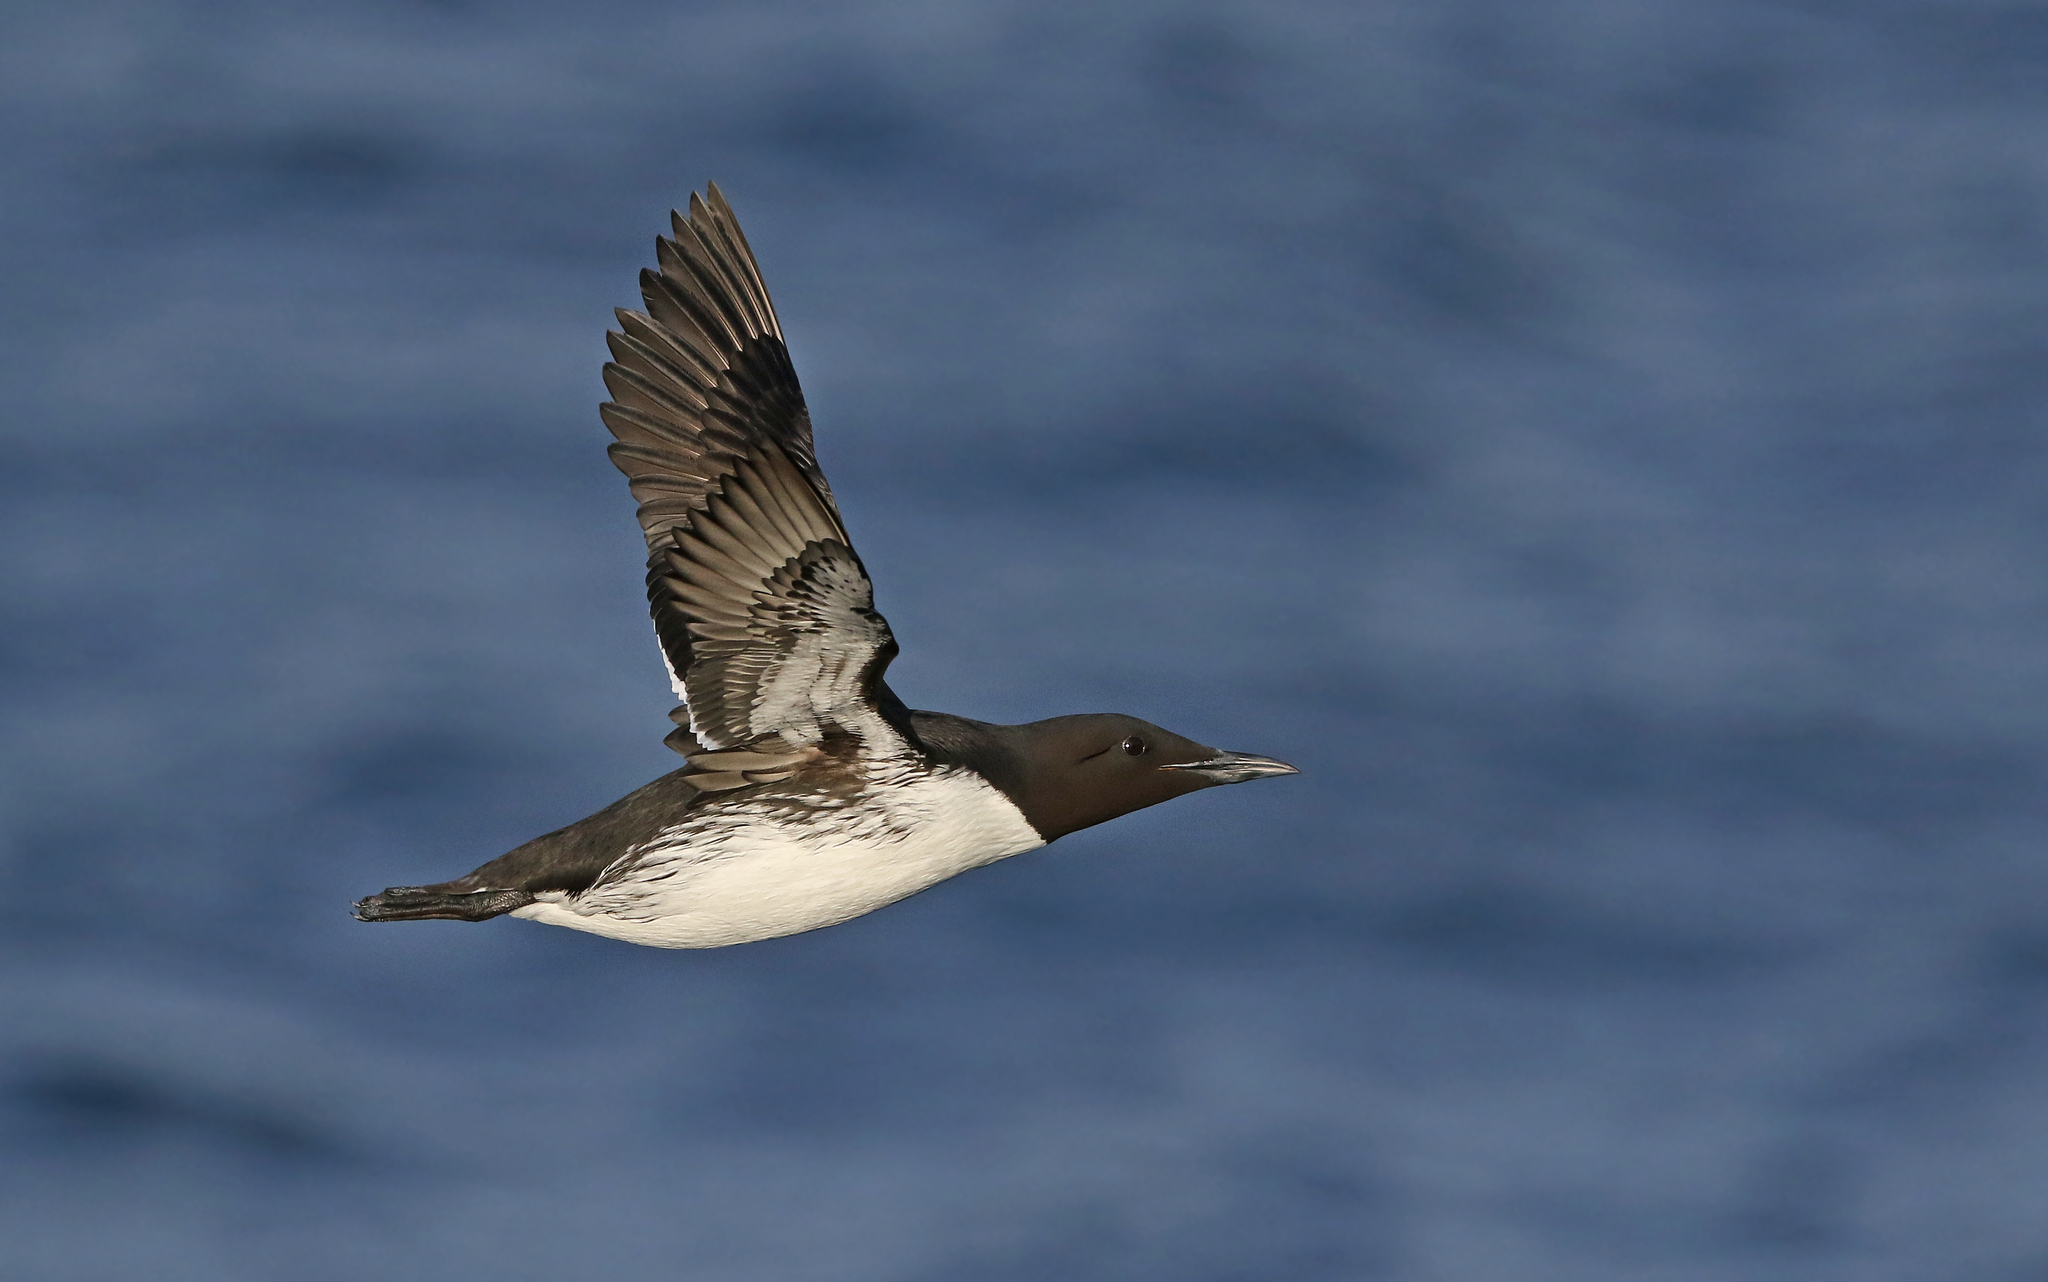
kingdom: Animalia
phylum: Chordata
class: Aves
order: Charadriiformes
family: Alcidae
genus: Uria
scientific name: Uria aalge
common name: Common murre
